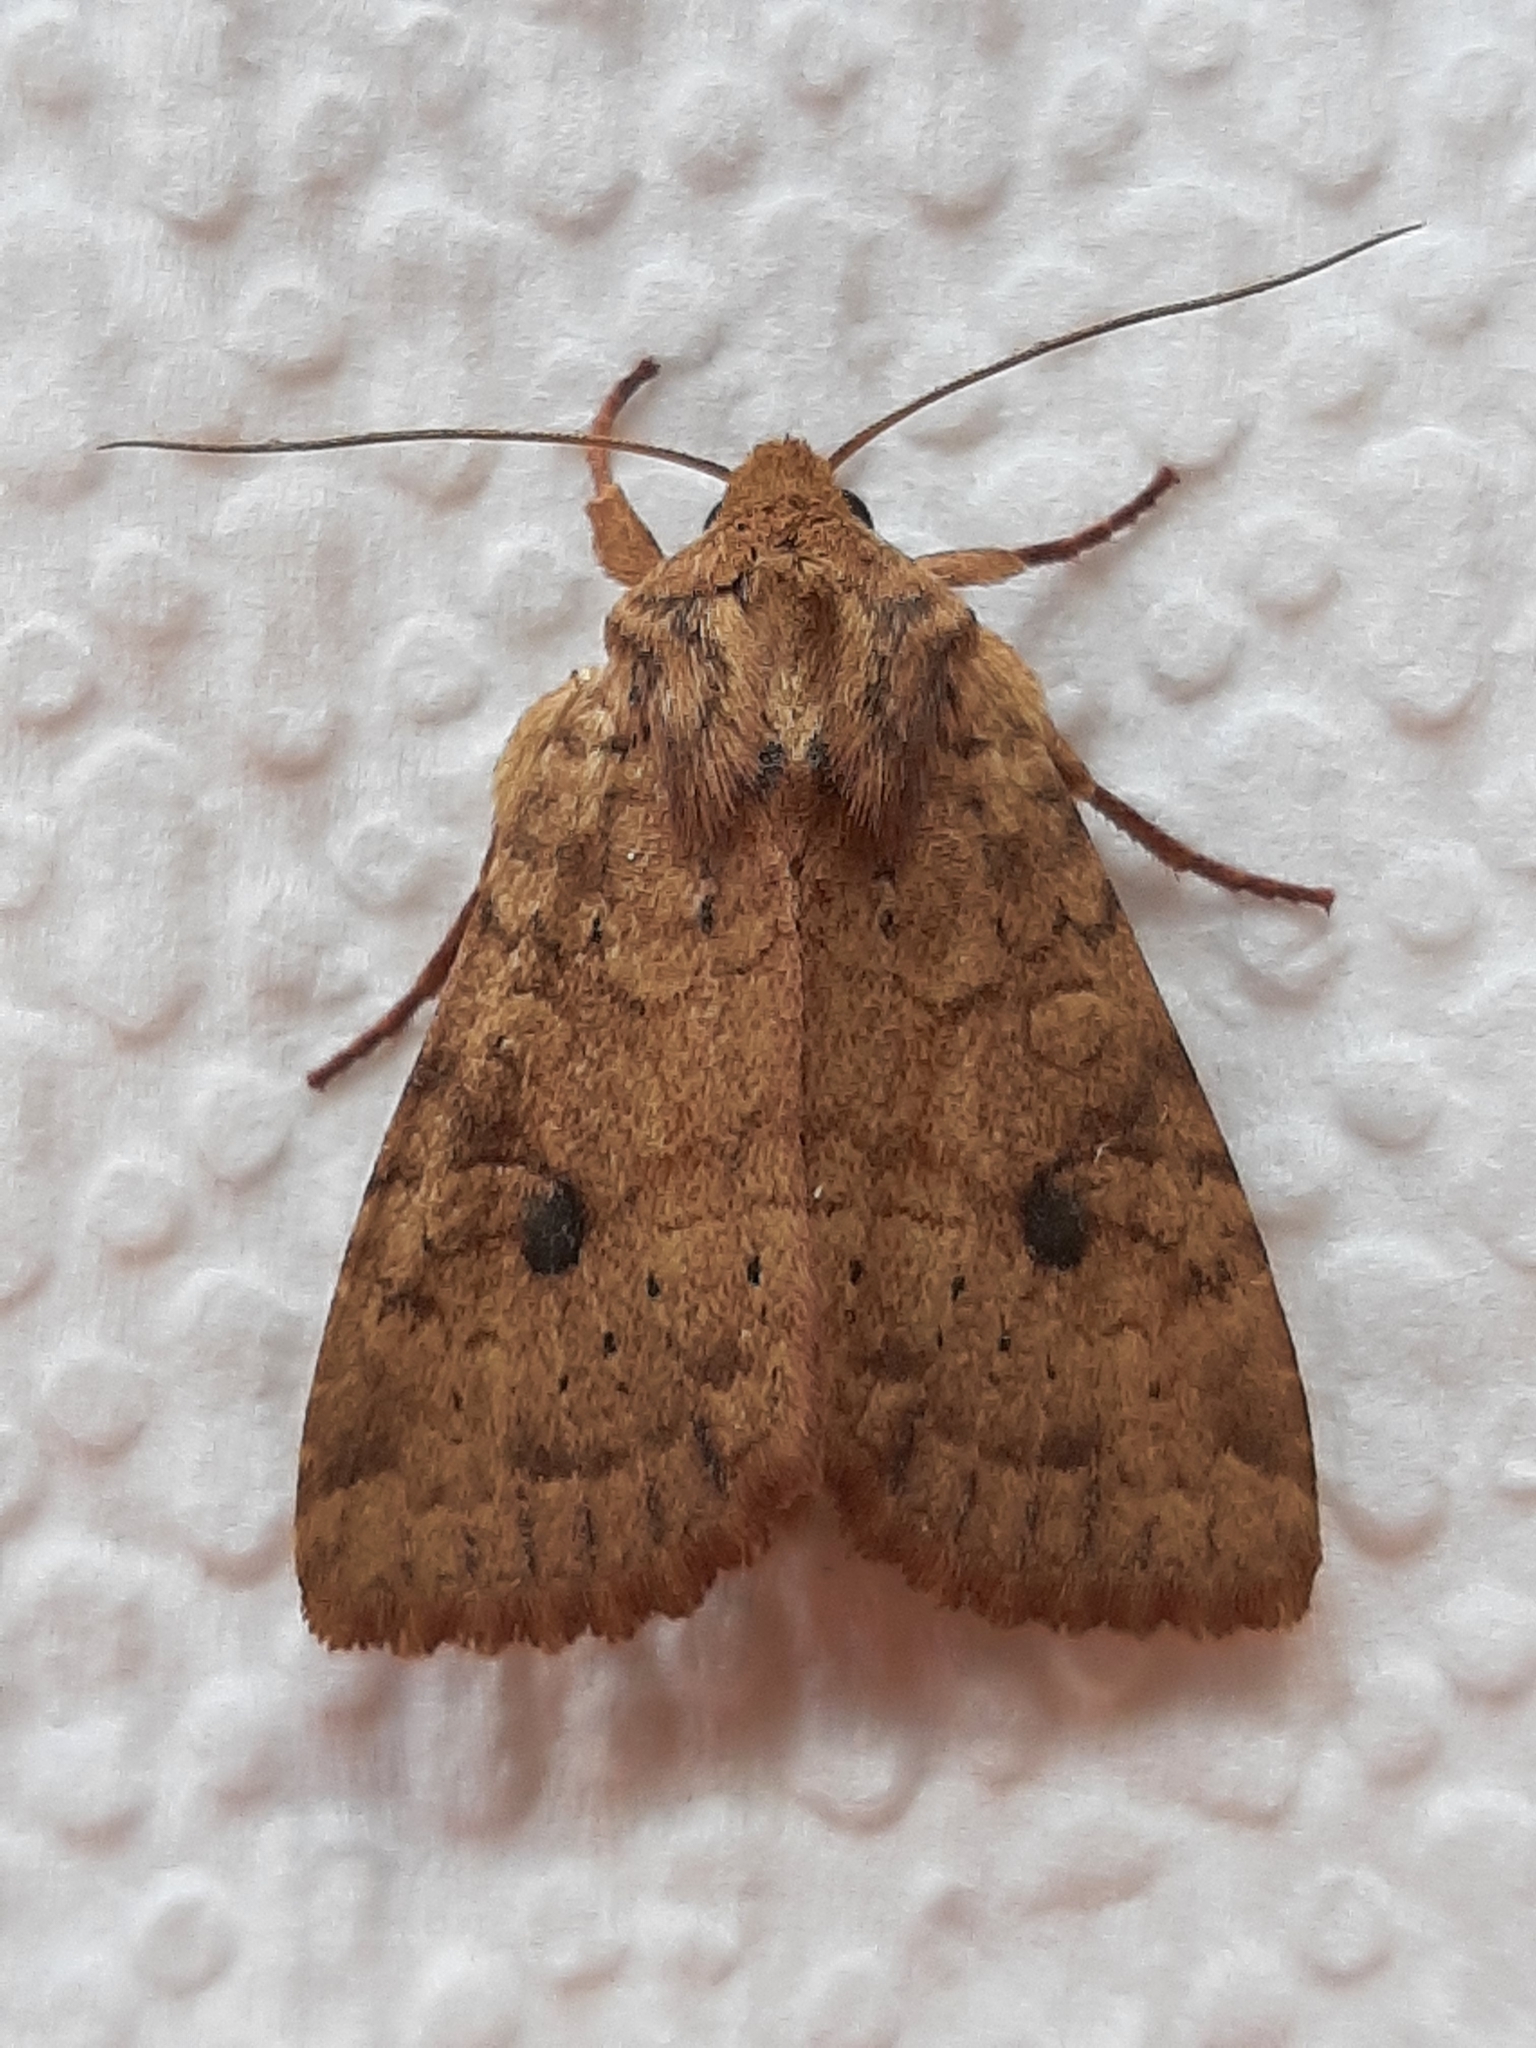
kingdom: Animalia
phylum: Arthropoda
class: Insecta
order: Lepidoptera
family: Noctuidae
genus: Apamea
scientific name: Apamea helva
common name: Yellow three-spot
